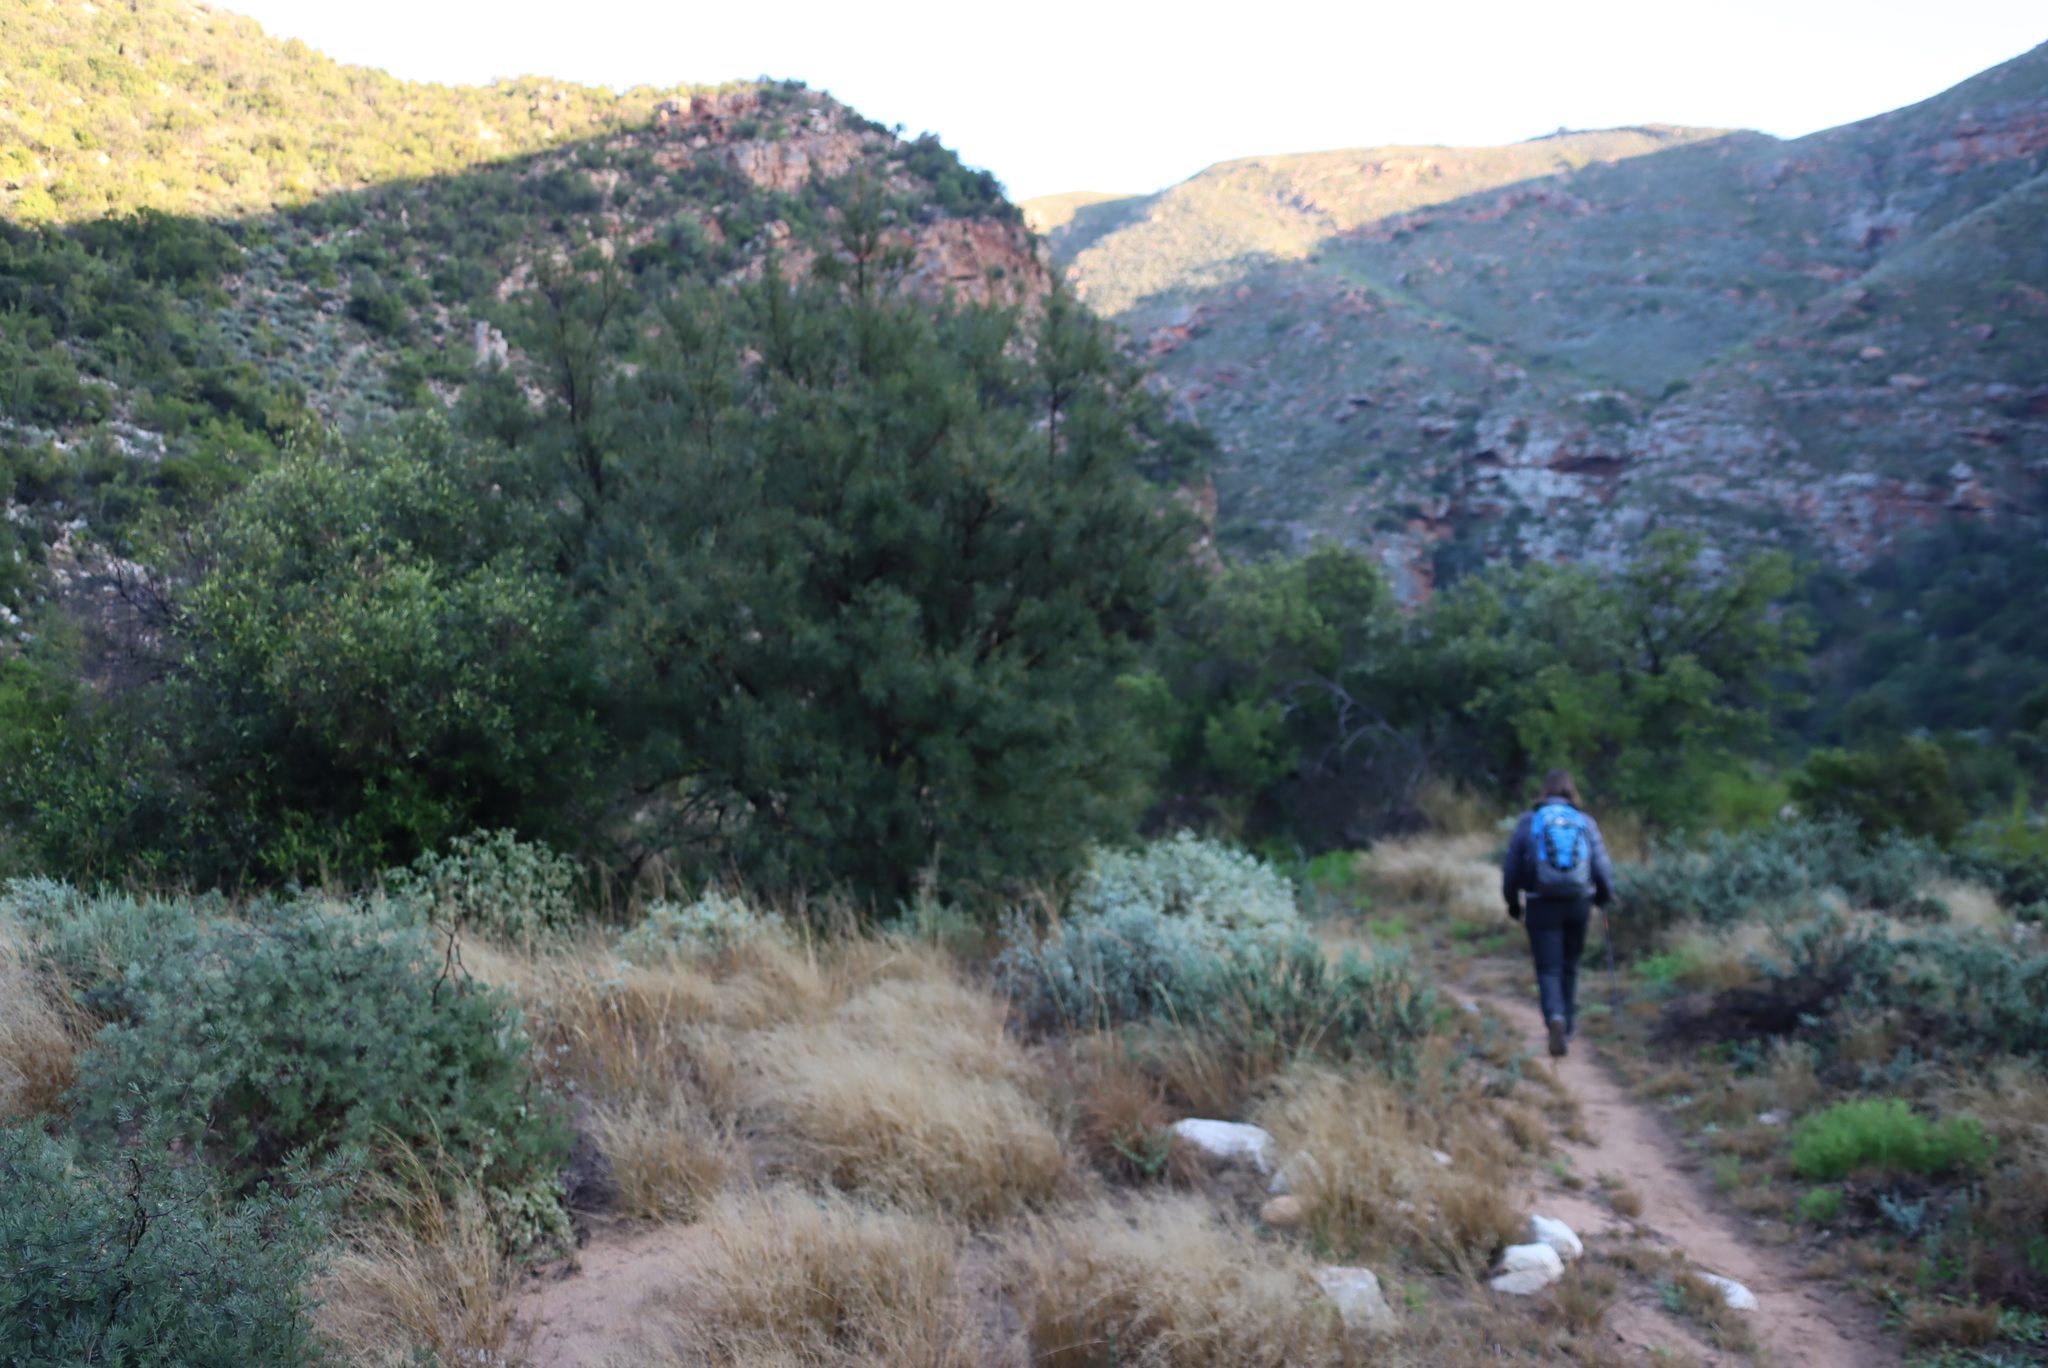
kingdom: Plantae
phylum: Tracheophyta
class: Magnoliopsida
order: Sapindales
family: Anacardiaceae
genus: Searsia
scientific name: Searsia lancea
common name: Cashew
